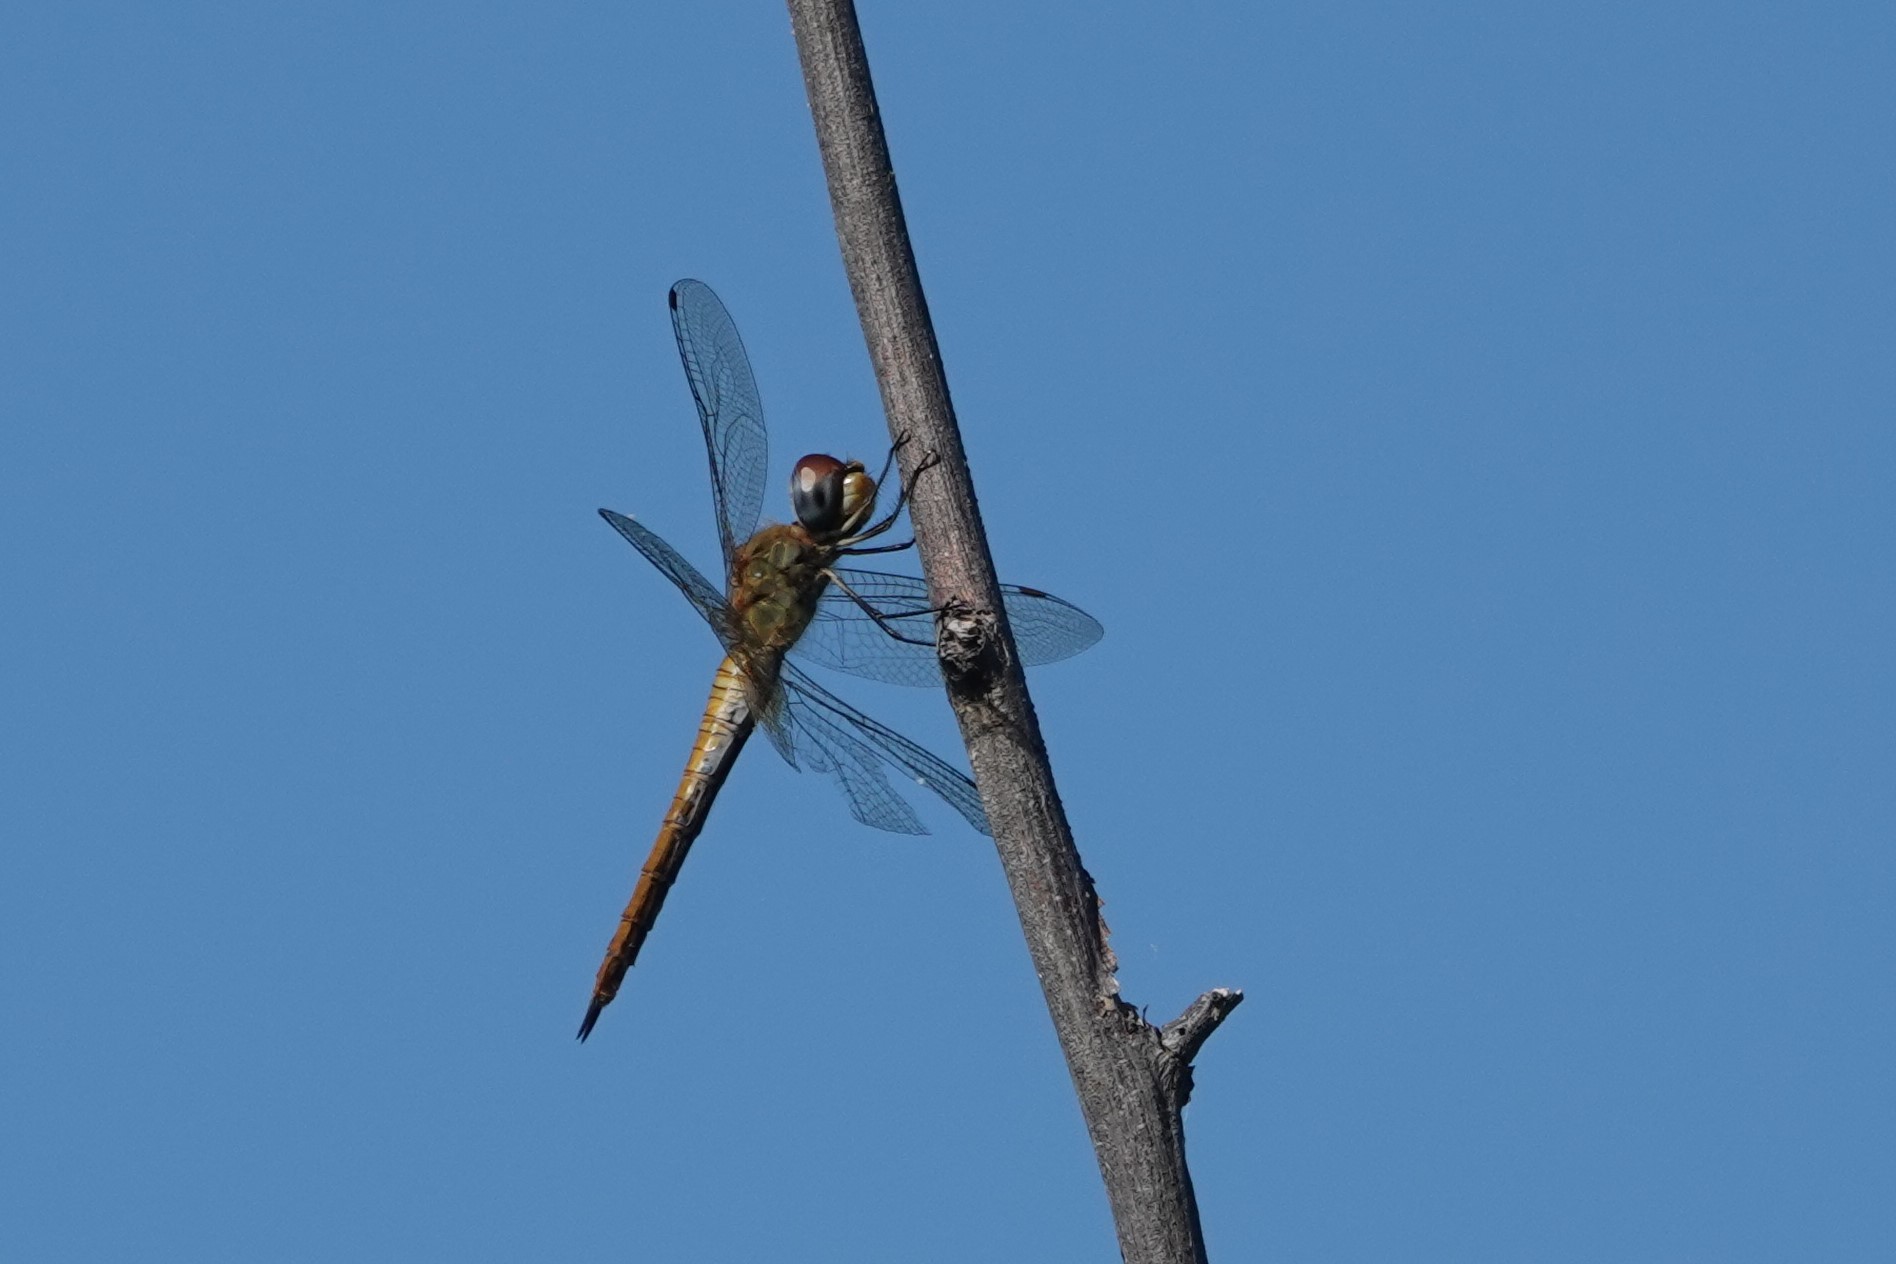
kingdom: Animalia
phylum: Arthropoda
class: Insecta
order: Odonata
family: Libellulidae
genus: Pantala
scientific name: Pantala flavescens
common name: Wandering glider
